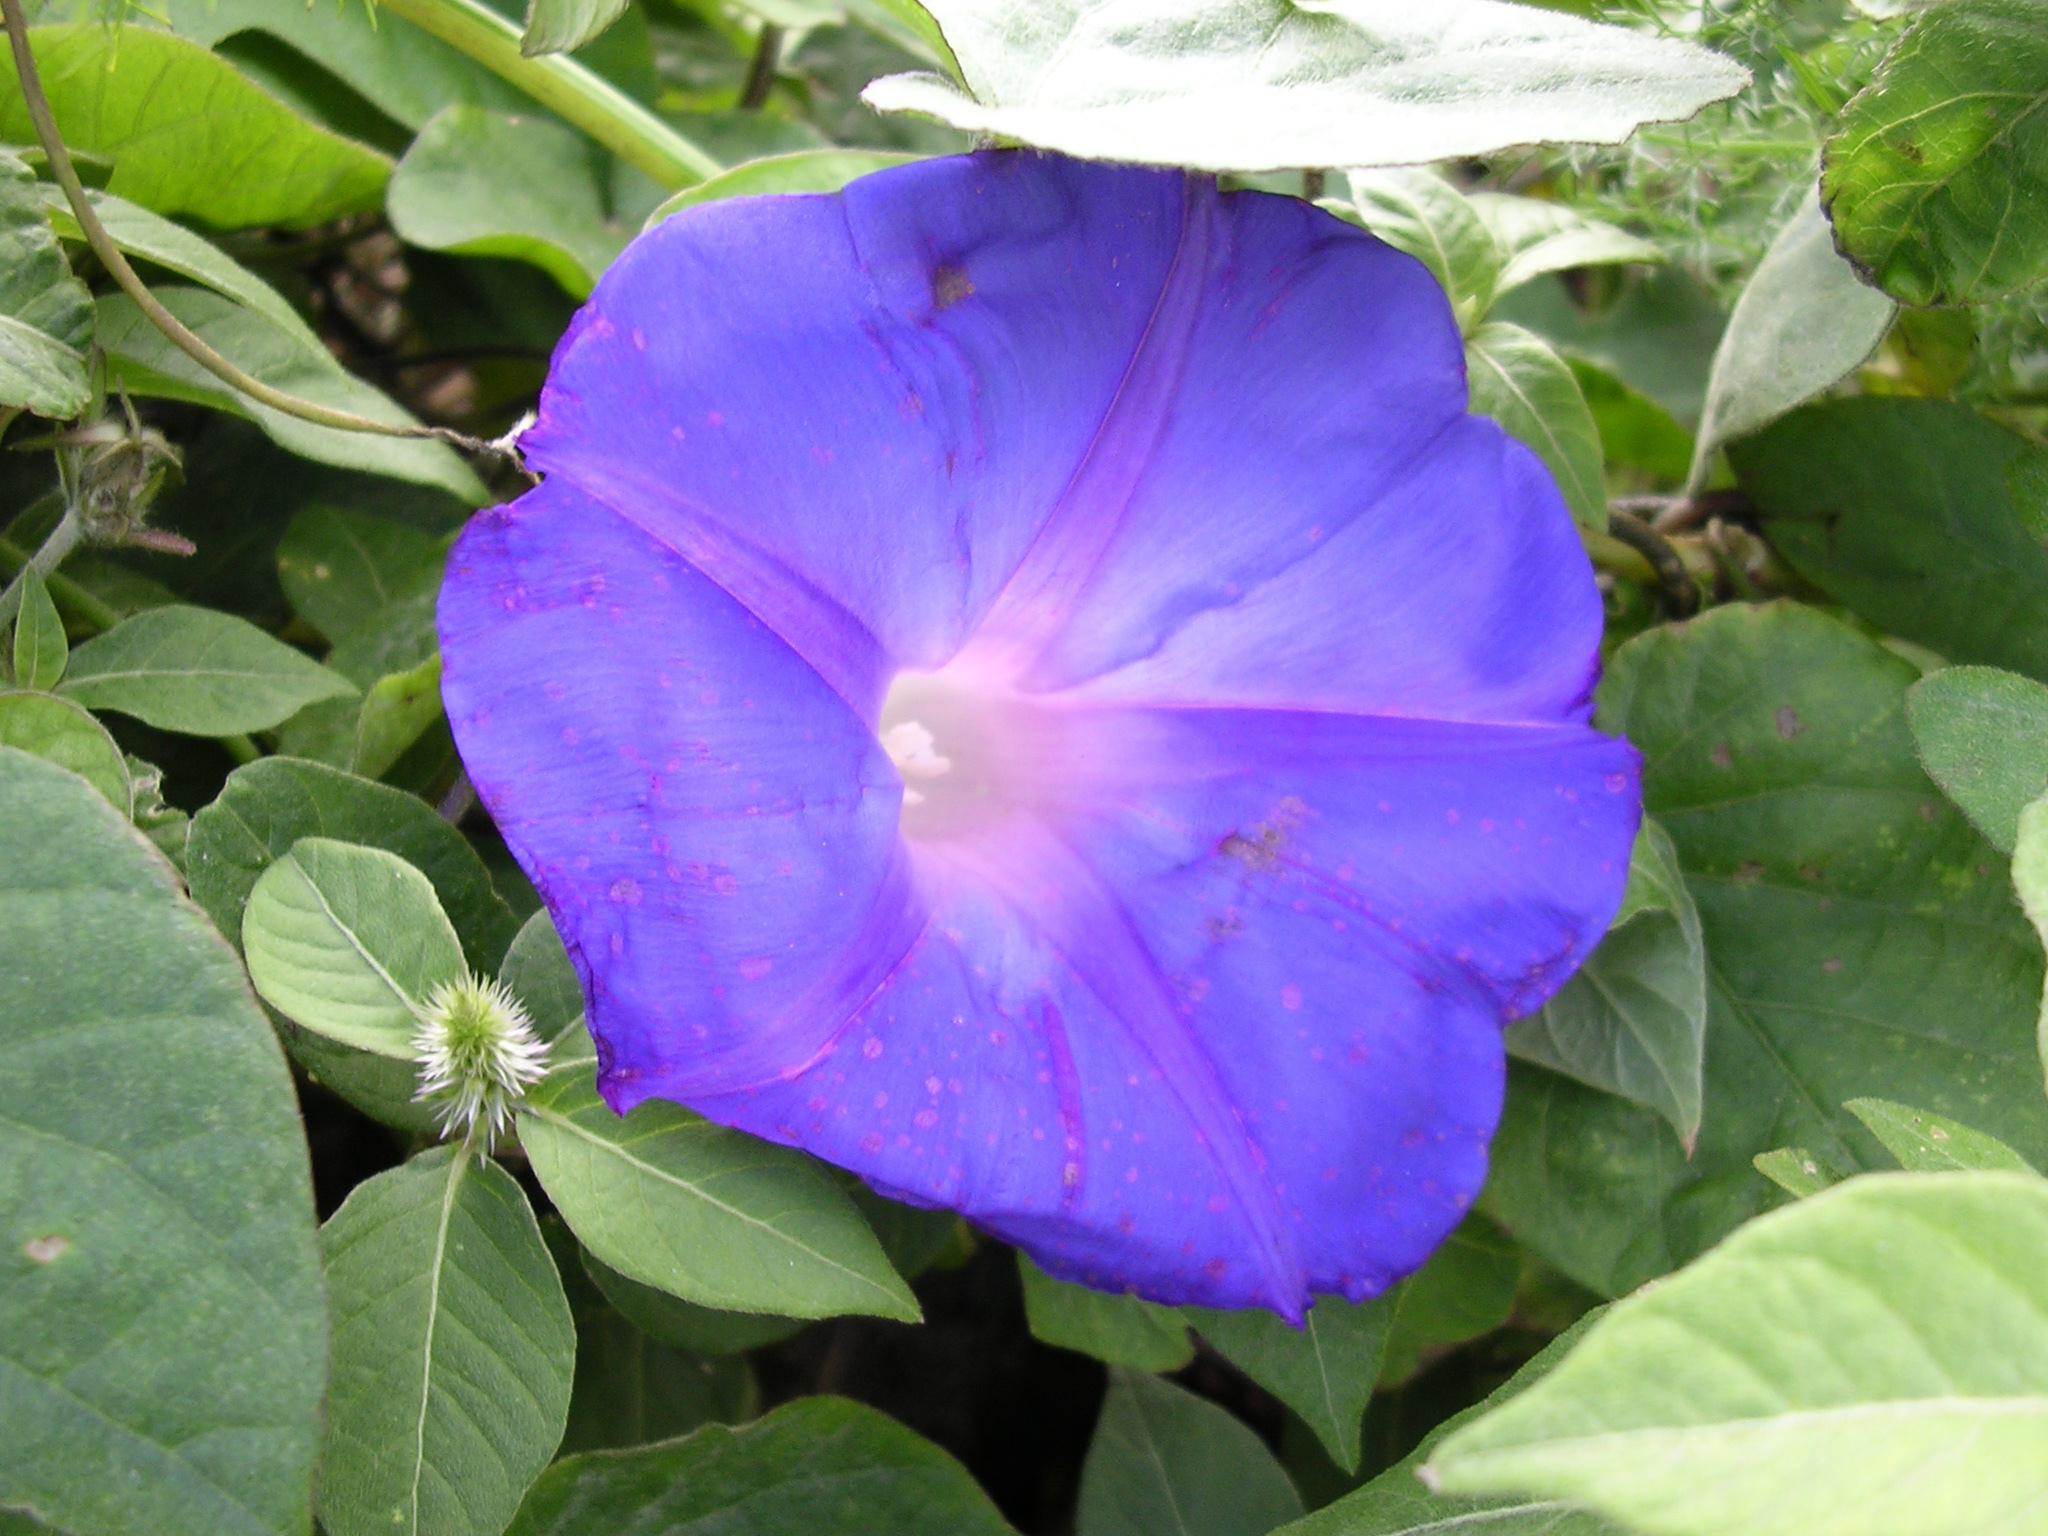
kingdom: Plantae
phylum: Tracheophyta
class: Magnoliopsida
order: Solanales
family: Convolvulaceae
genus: Ipomoea
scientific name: Ipomoea indica
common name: Blue dawnflower
